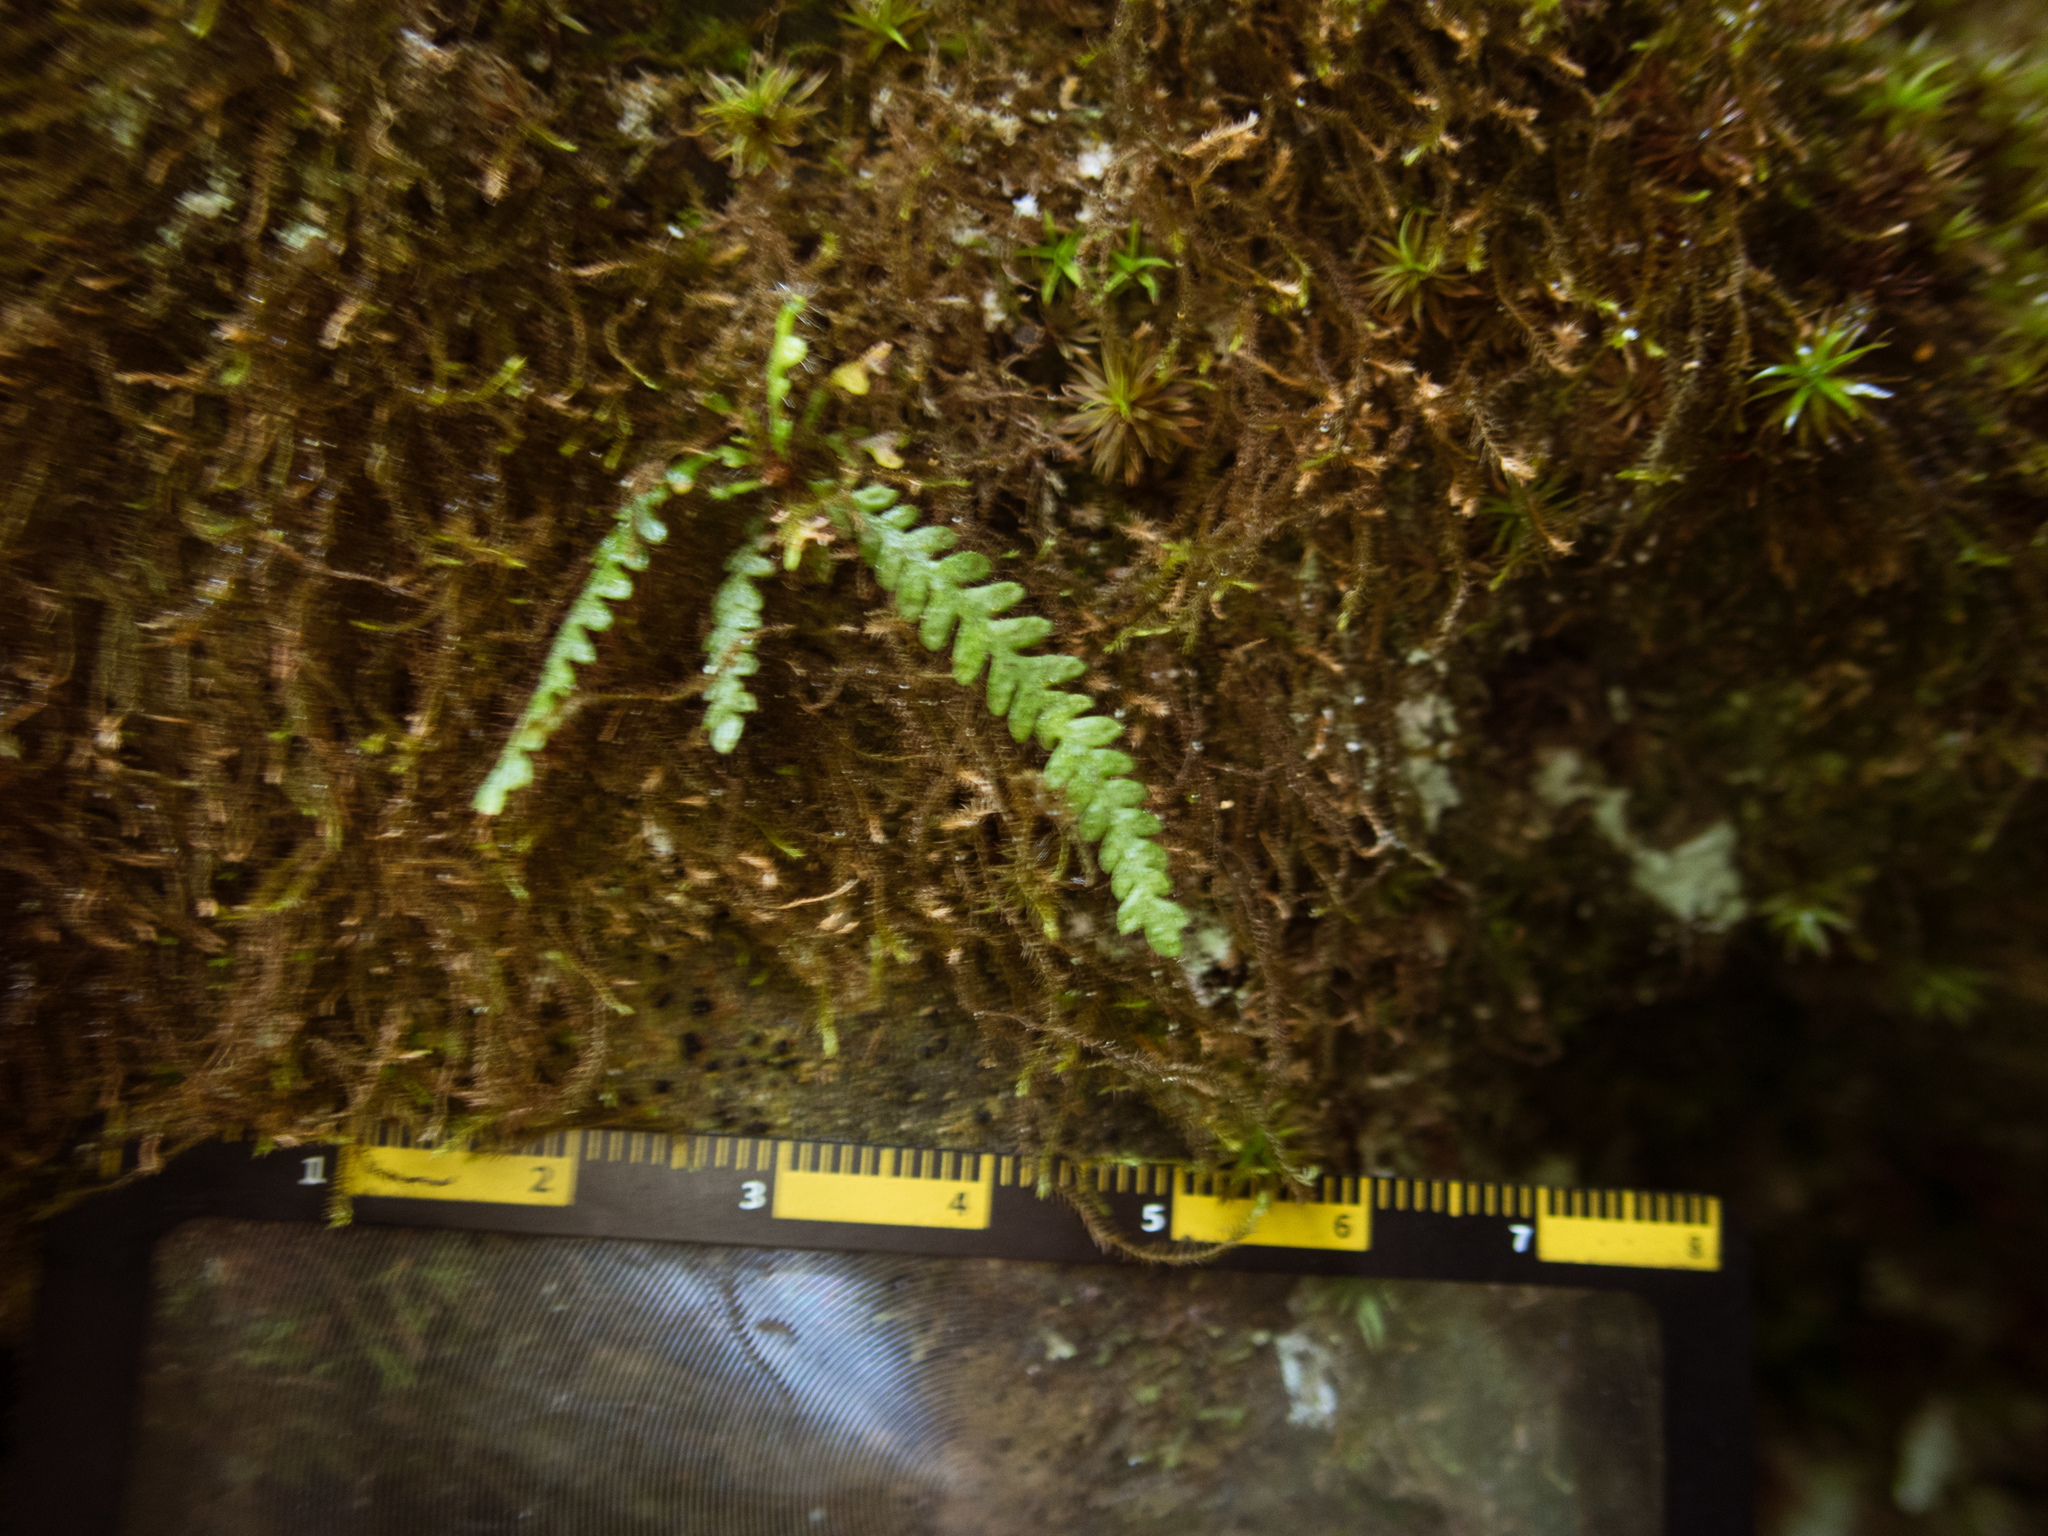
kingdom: Plantae
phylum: Tracheophyta
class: Polypodiopsida
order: Polypodiales
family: Polypodiaceae
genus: Micropolypodium
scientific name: Micropolypodium okuboi
